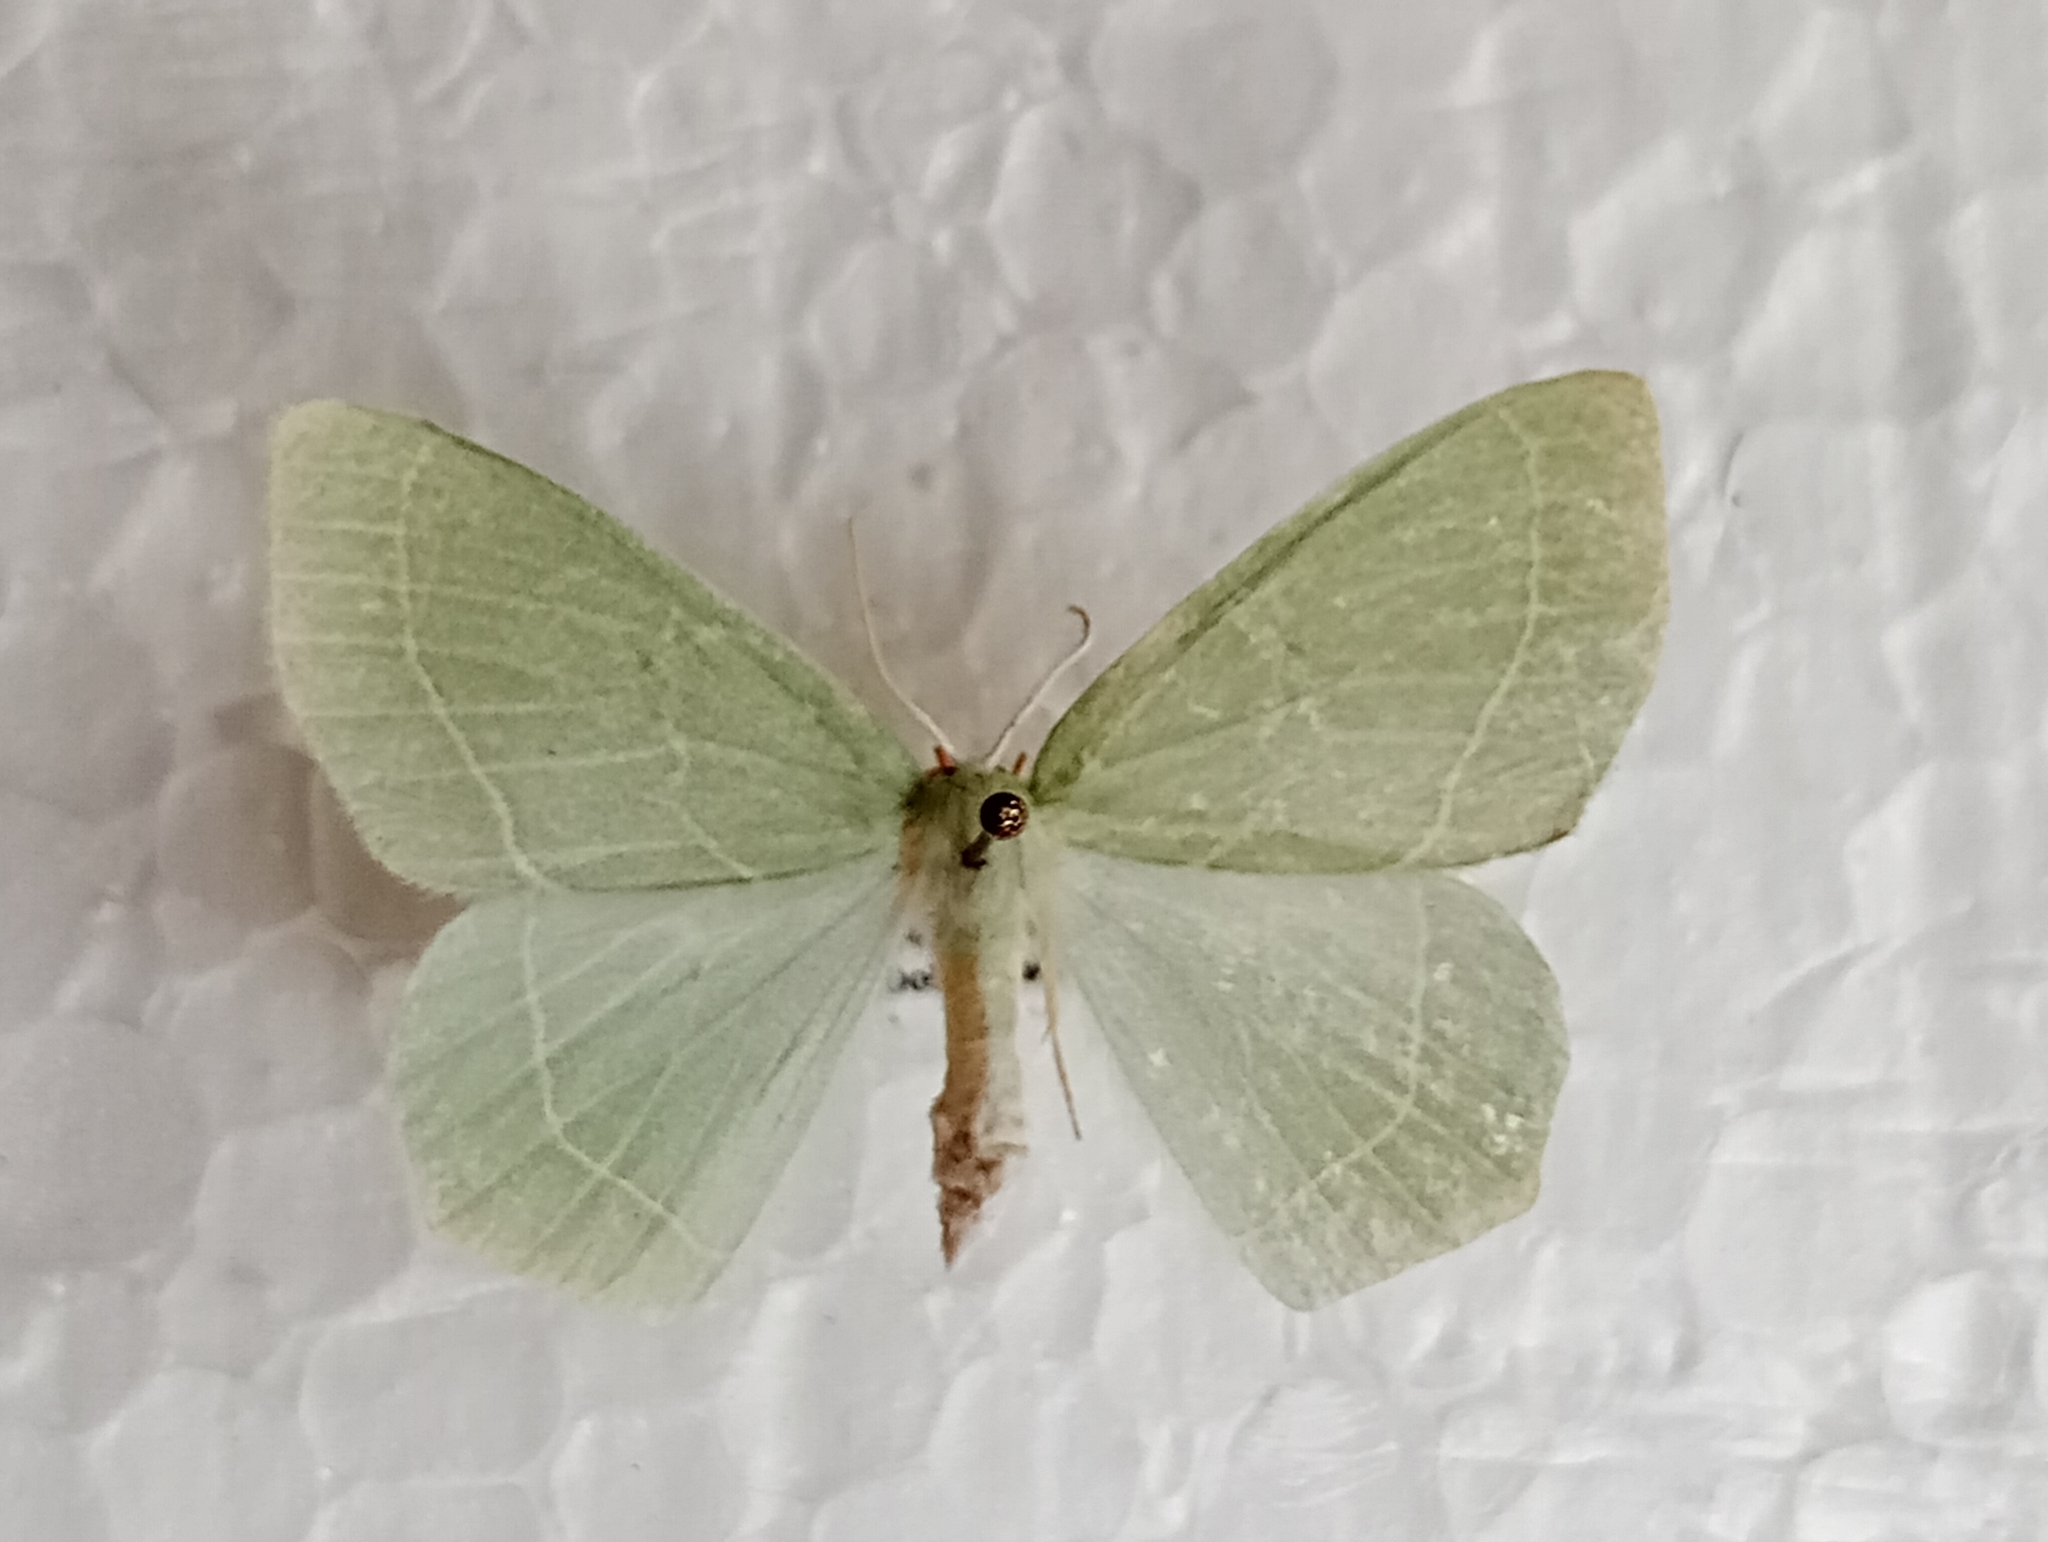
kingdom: Animalia
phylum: Arthropoda
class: Insecta
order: Lepidoptera
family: Geometridae
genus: Hemistola
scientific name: Hemistola chrysoprasaria
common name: Small emerald
